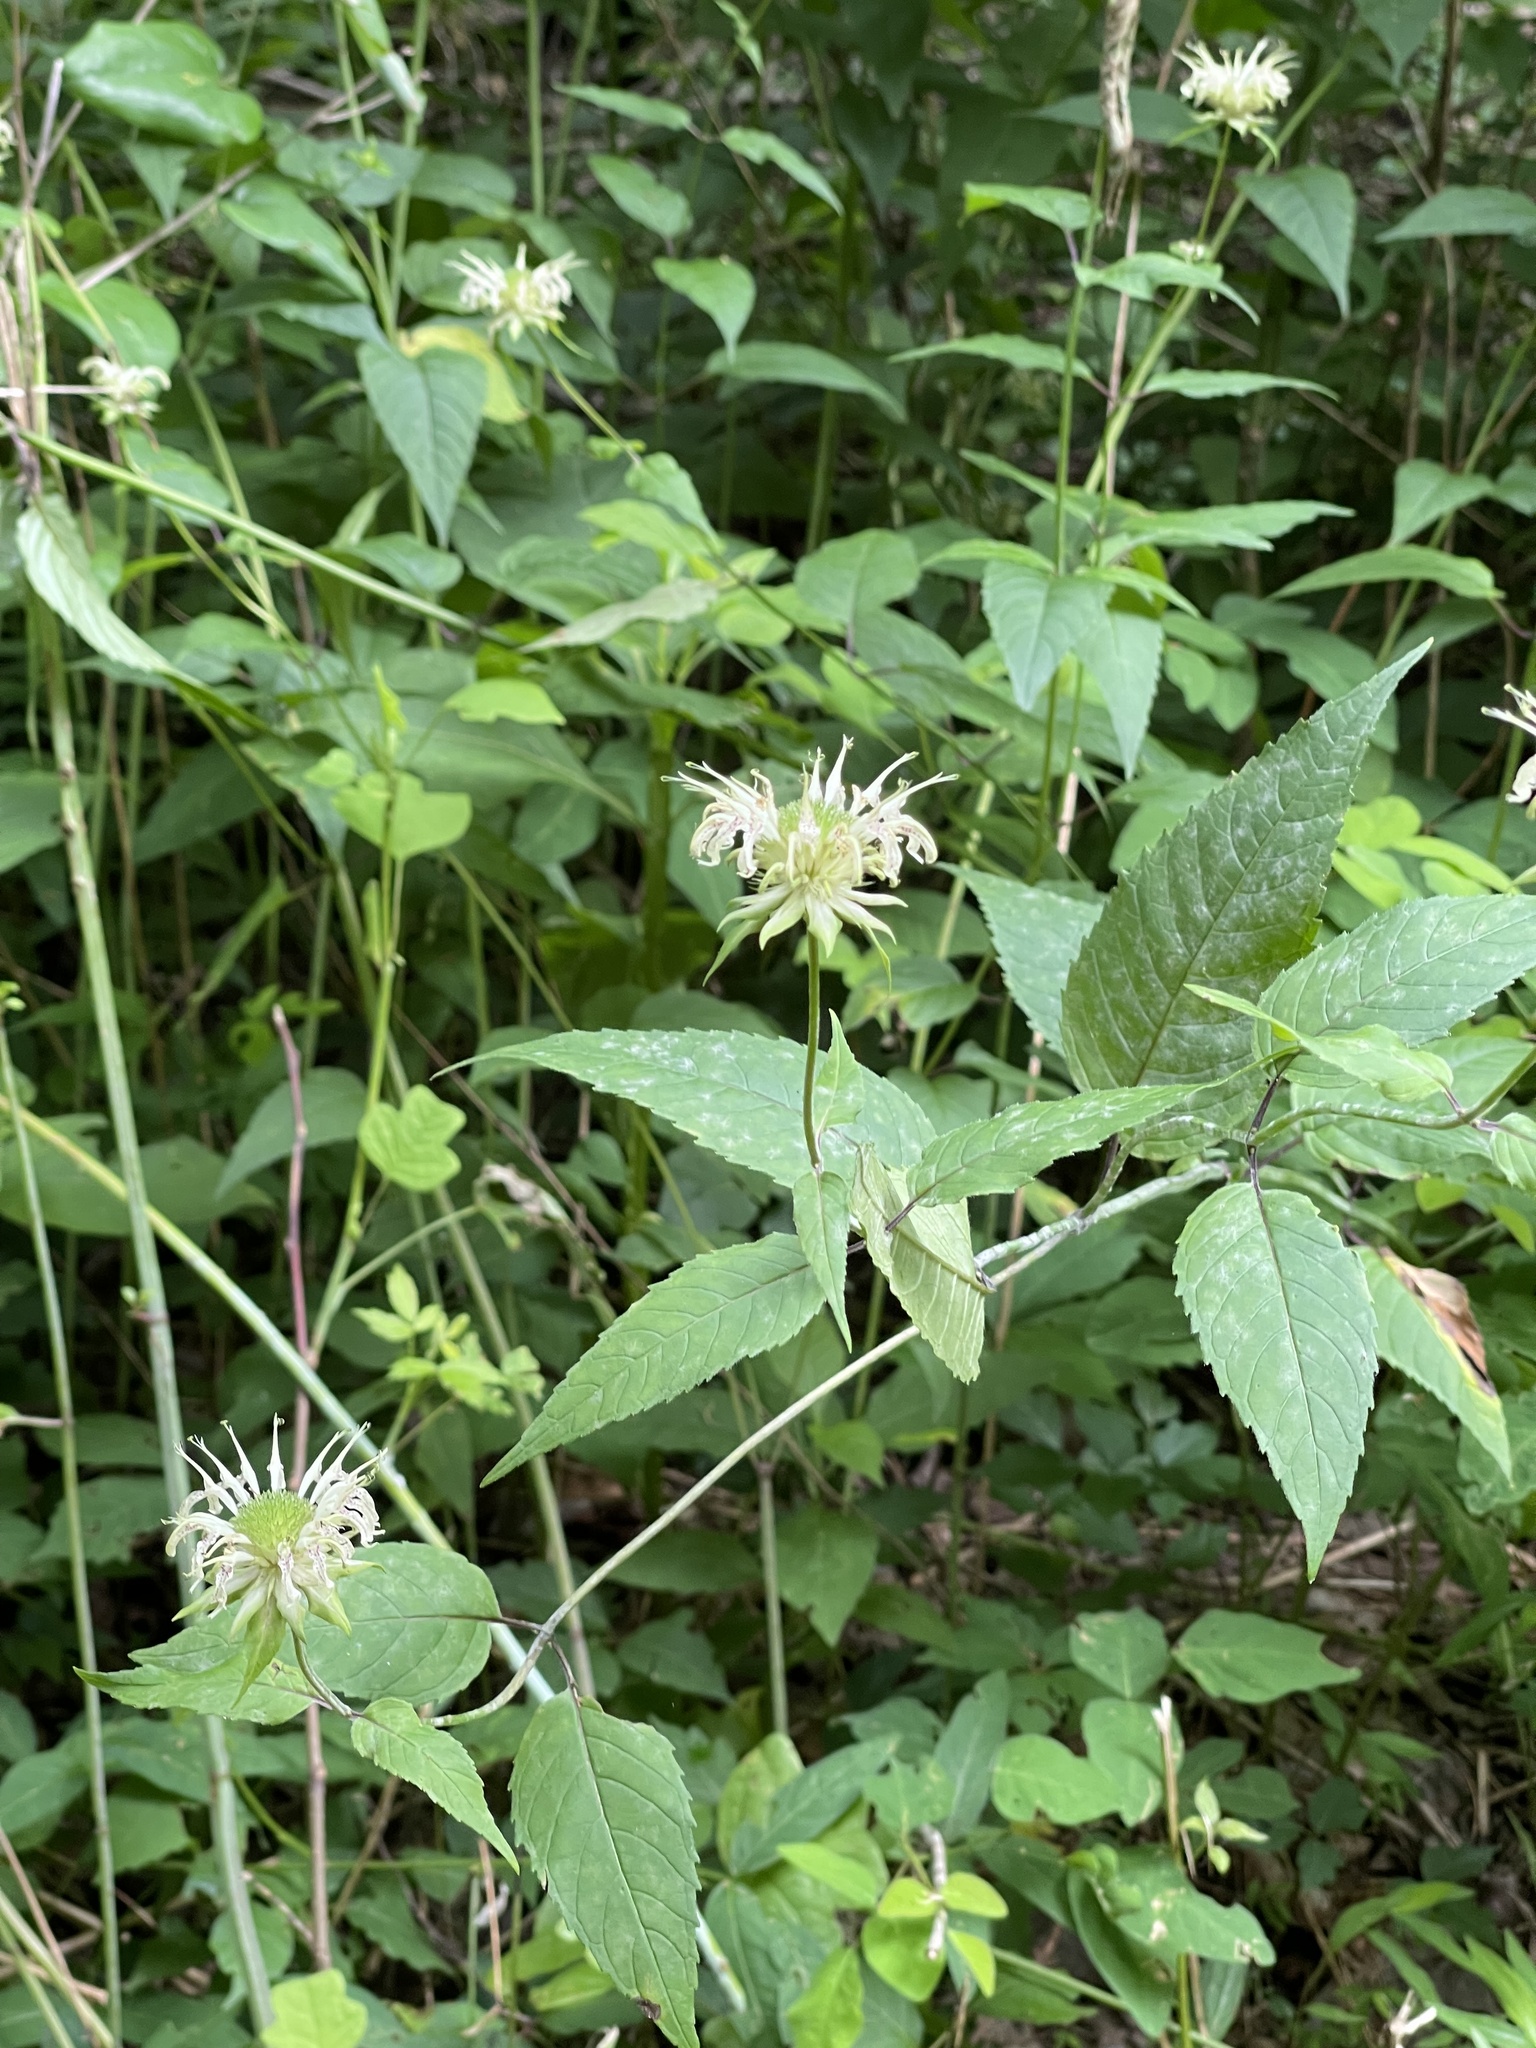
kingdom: Plantae
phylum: Tracheophyta
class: Magnoliopsida
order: Lamiales
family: Lamiaceae
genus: Monarda
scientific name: Monarda clinopodia
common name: Basil beebalm
